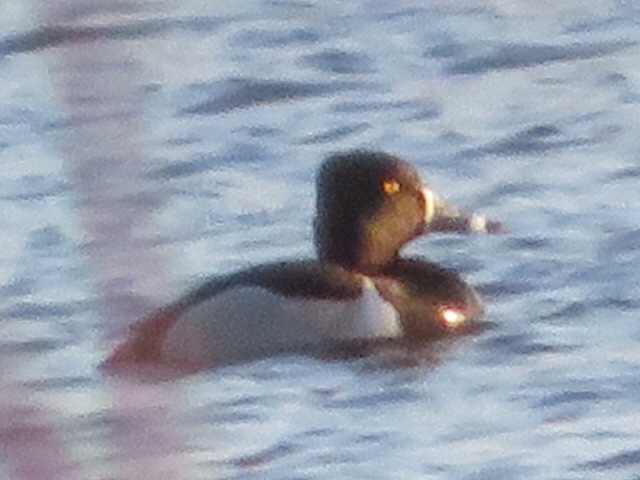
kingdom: Animalia
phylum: Chordata
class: Aves
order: Anseriformes
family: Anatidae
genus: Aythya
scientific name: Aythya collaris
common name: Ring-necked duck
